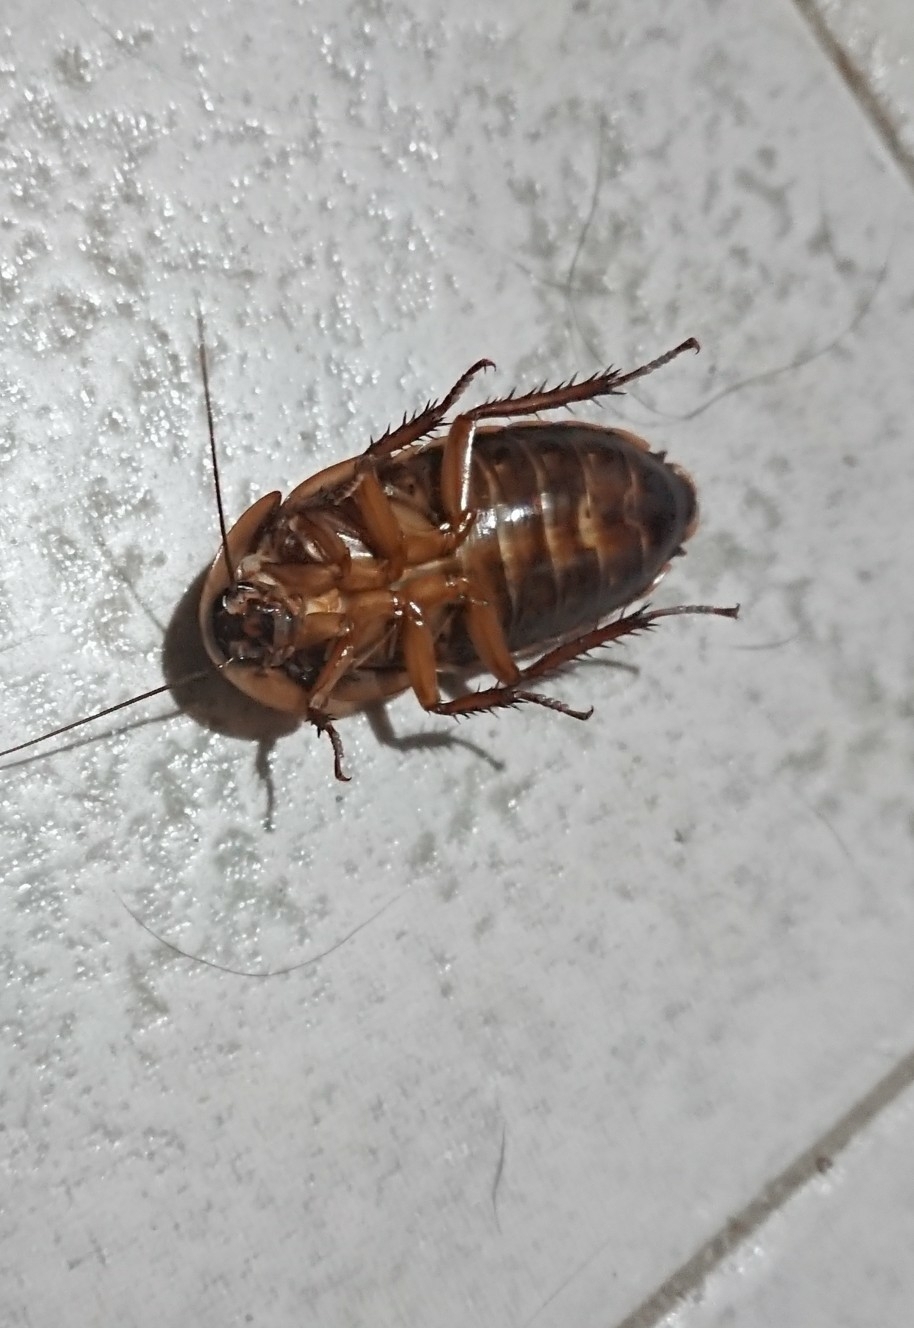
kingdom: Animalia
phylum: Arthropoda
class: Insecta
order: Blattodea
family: Blaberidae
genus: Blaptica
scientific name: Blaptica dubia
